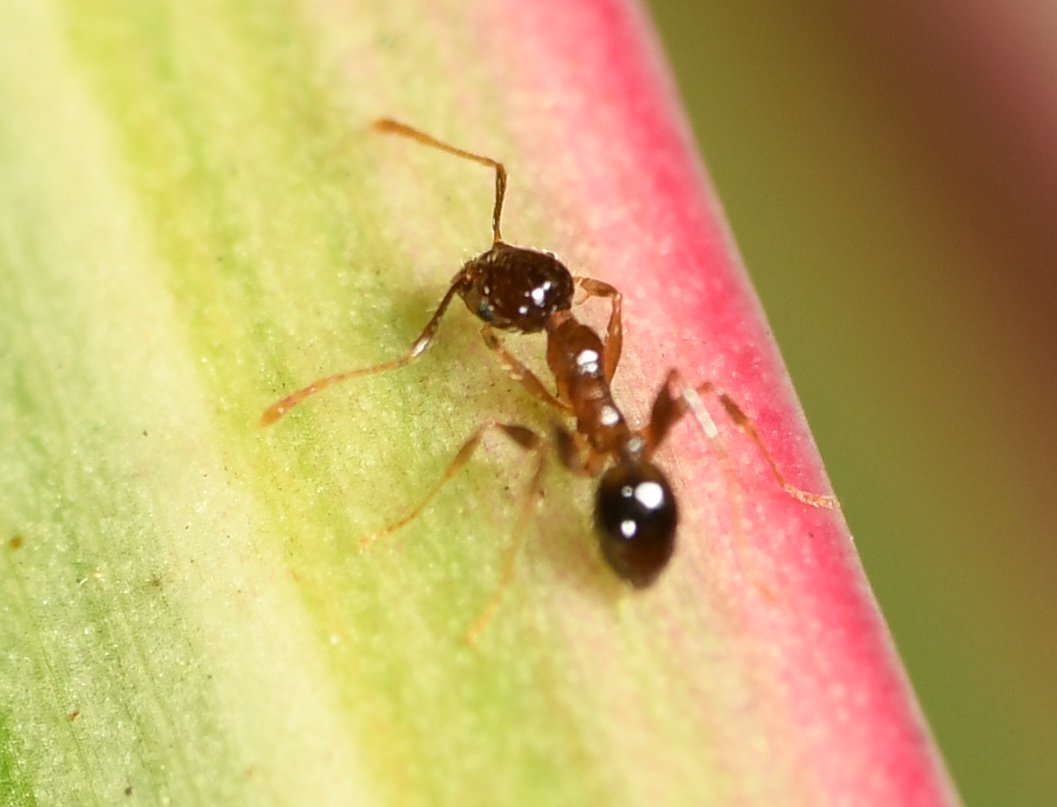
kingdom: Animalia
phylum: Arthropoda
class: Insecta
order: Hymenoptera
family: Formicidae
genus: Pheidole
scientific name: Pheidole megacephala
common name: Bigheaded ant
